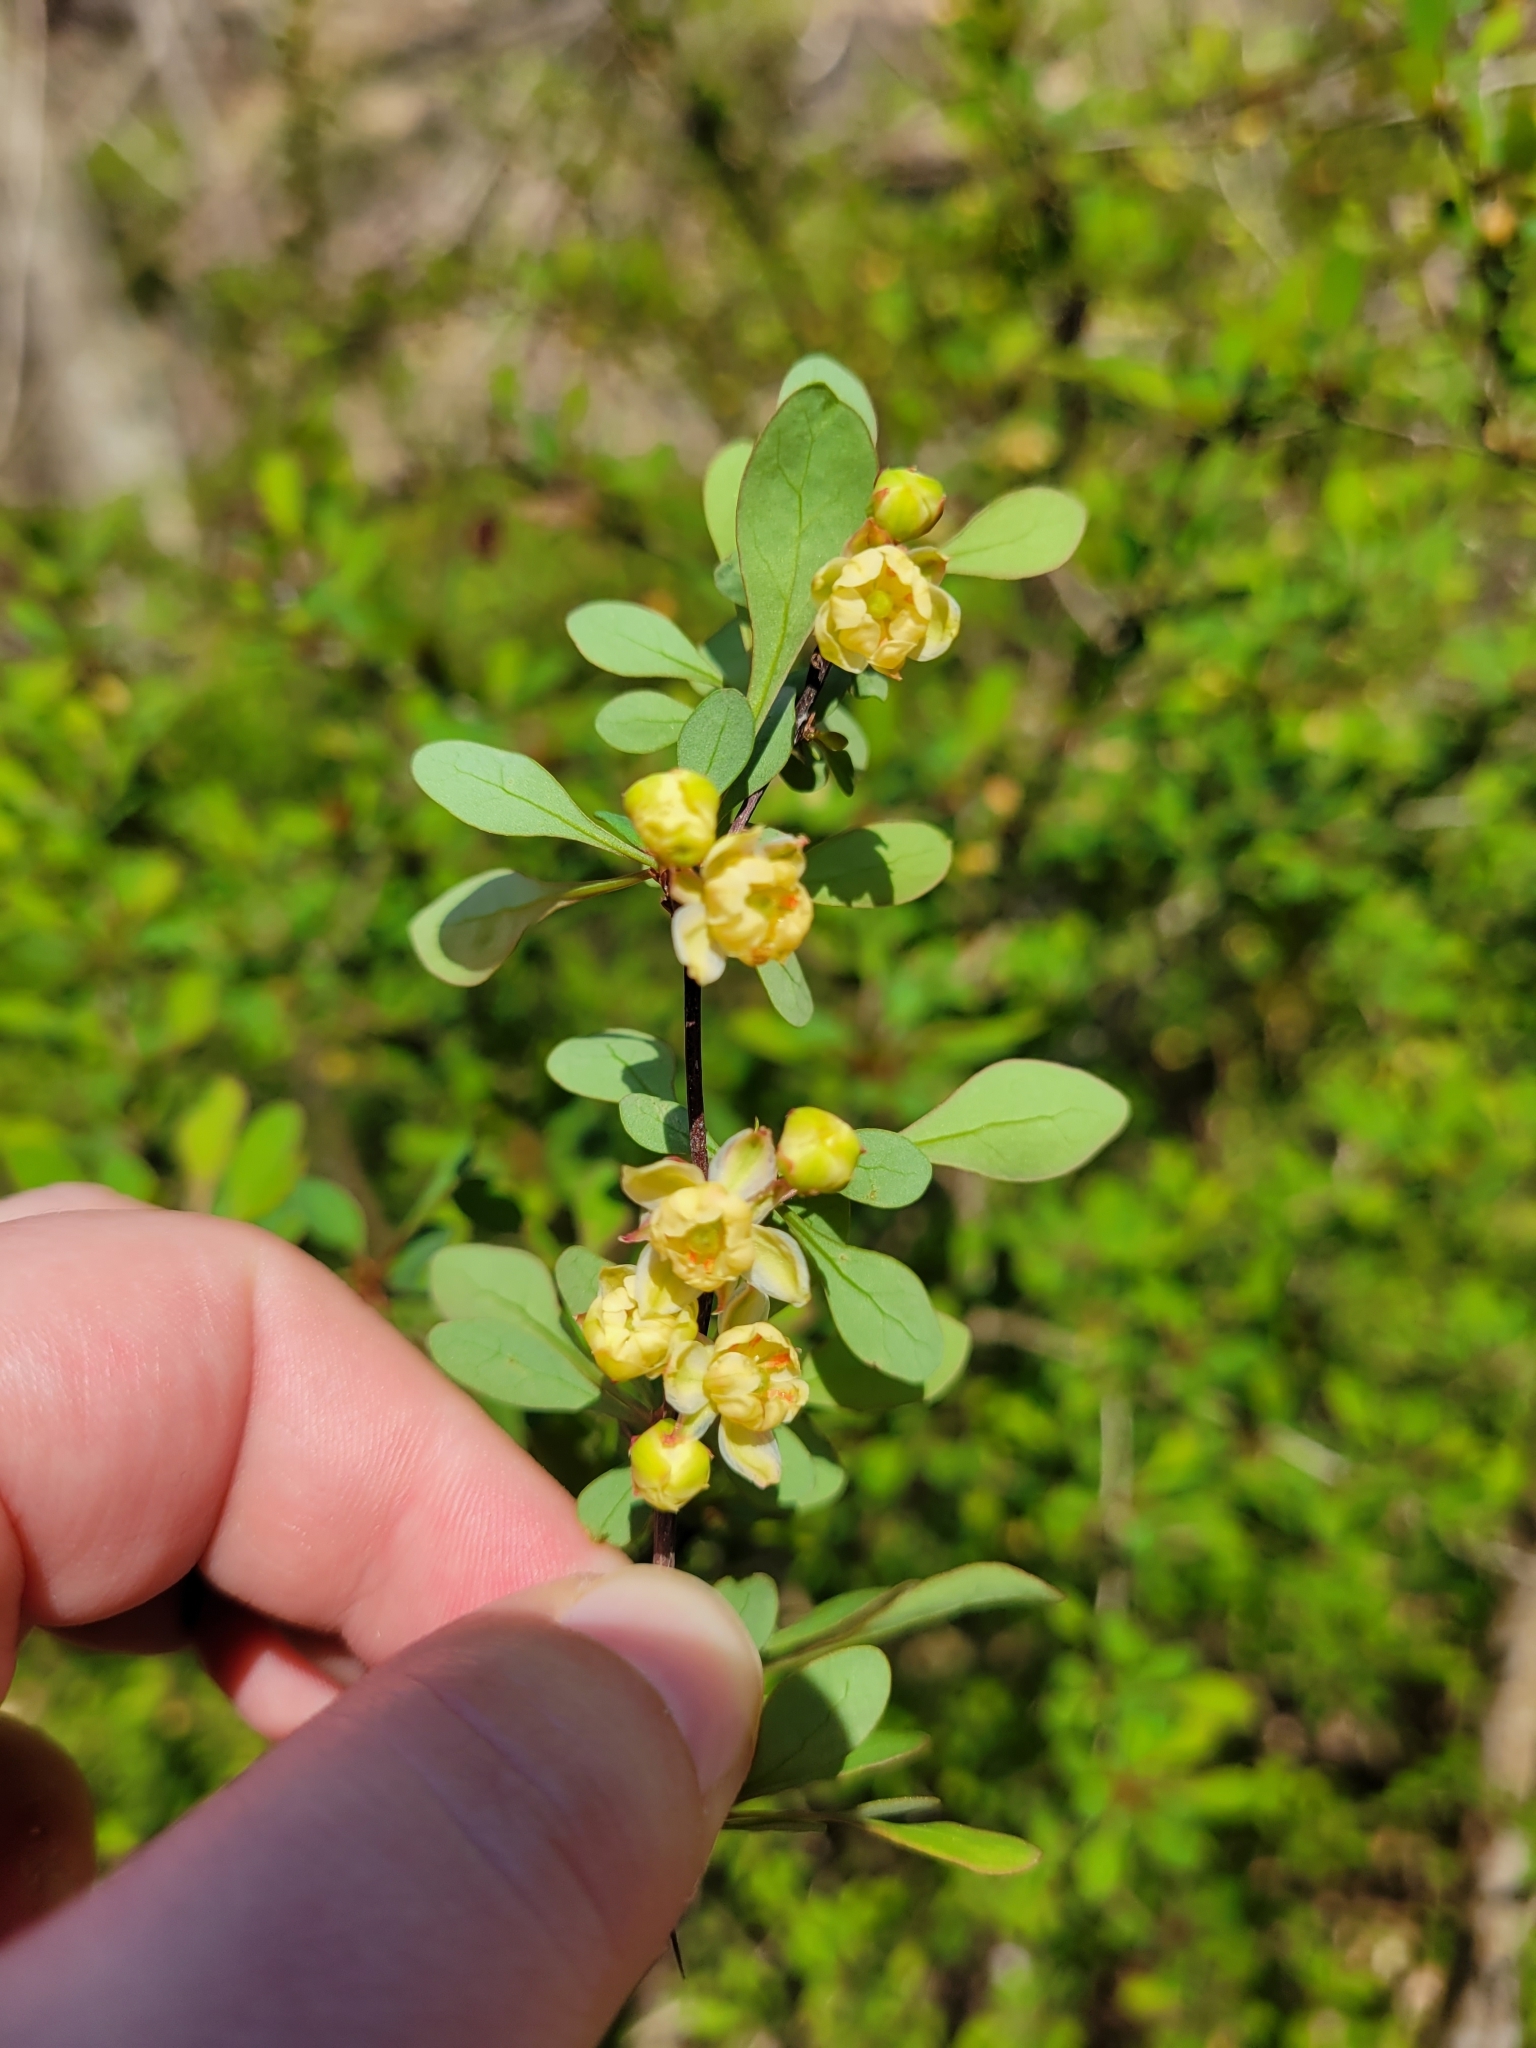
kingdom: Plantae
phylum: Tracheophyta
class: Magnoliopsida
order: Ranunculales
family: Berberidaceae
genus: Berberis
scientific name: Berberis thunbergii
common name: Japanese barberry
